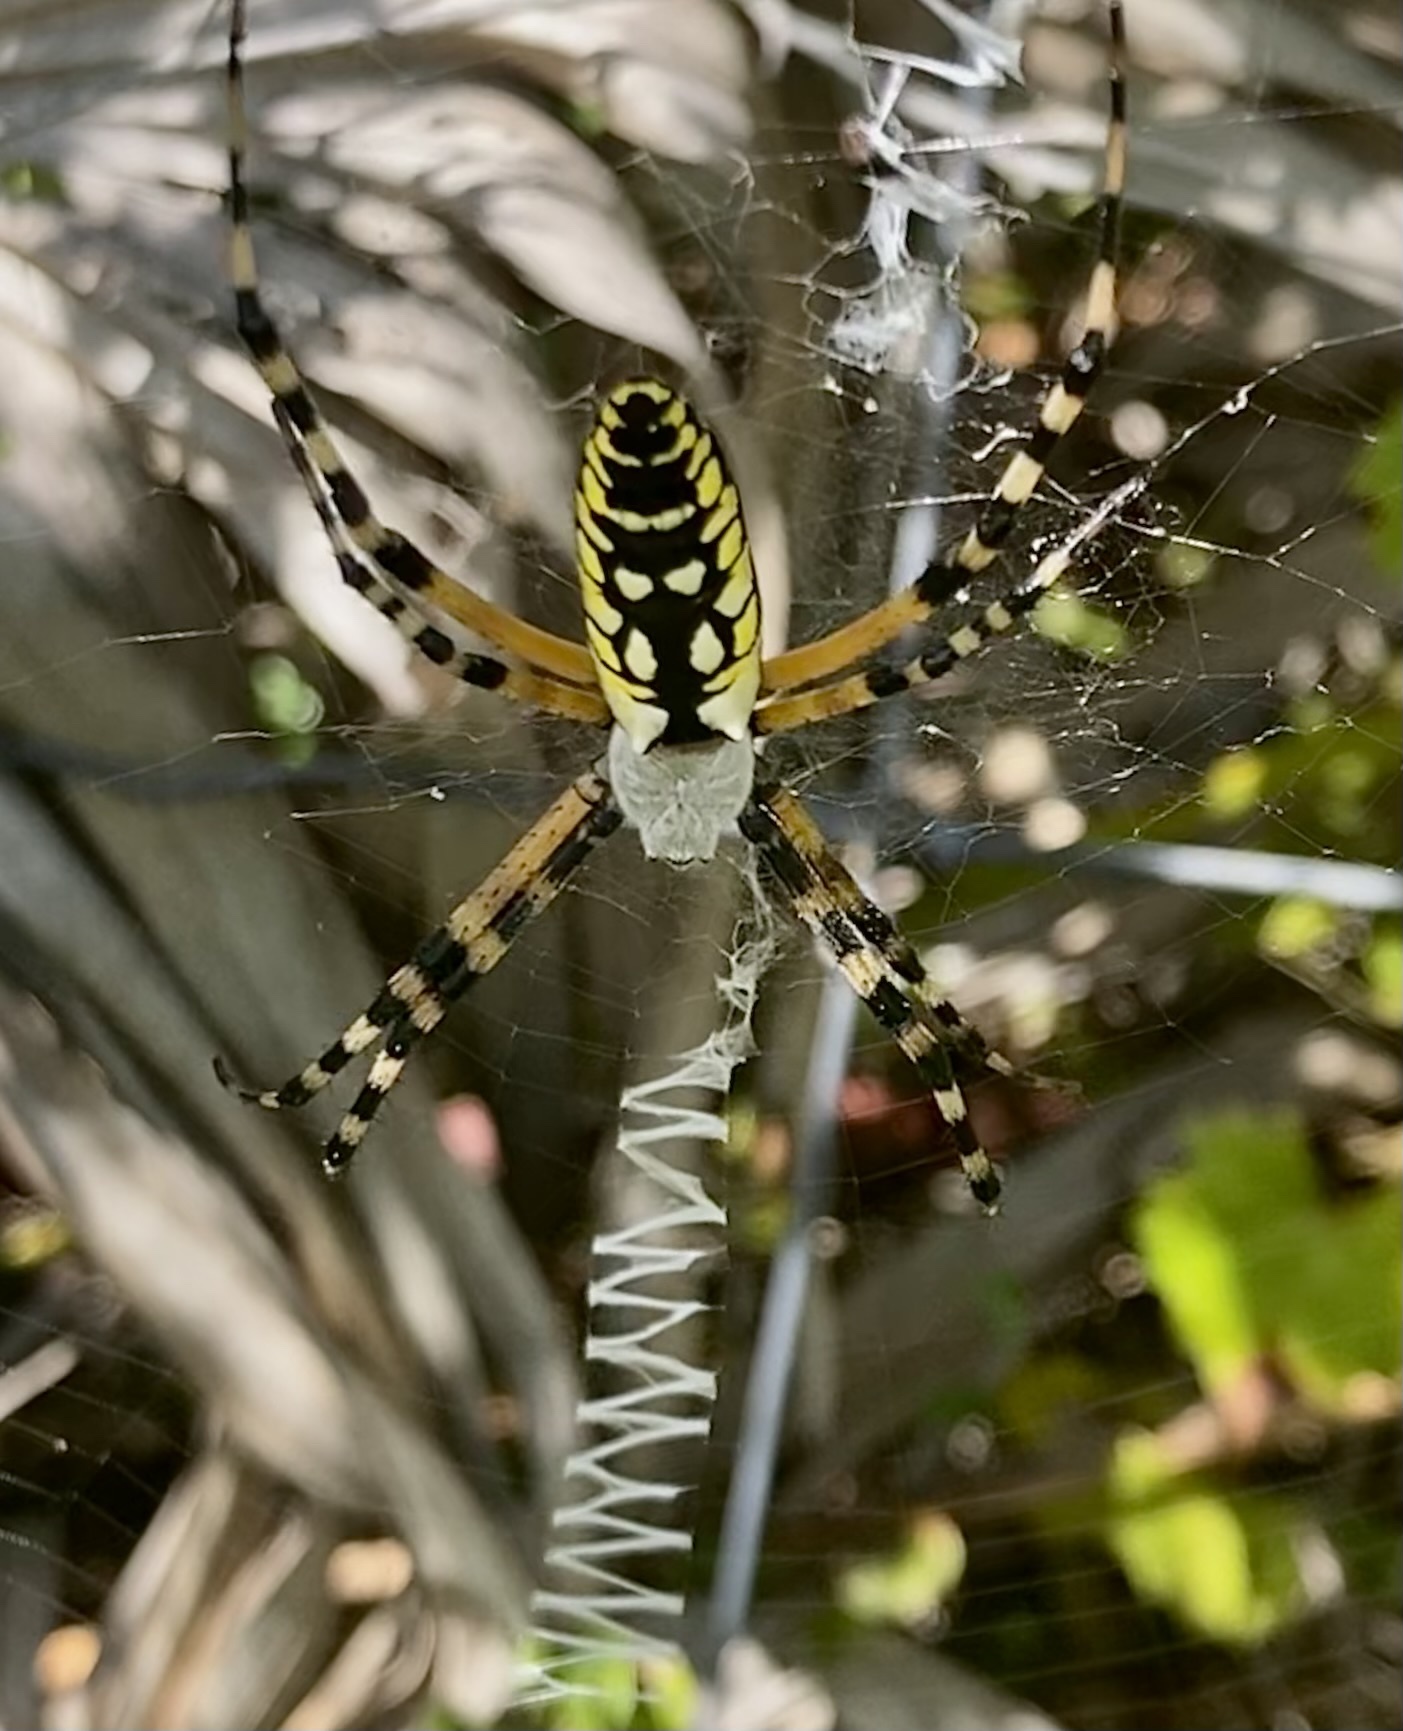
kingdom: Animalia
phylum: Arthropoda
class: Arachnida
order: Araneae
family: Araneidae
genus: Argiope
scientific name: Argiope aurantia
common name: Orb weavers
